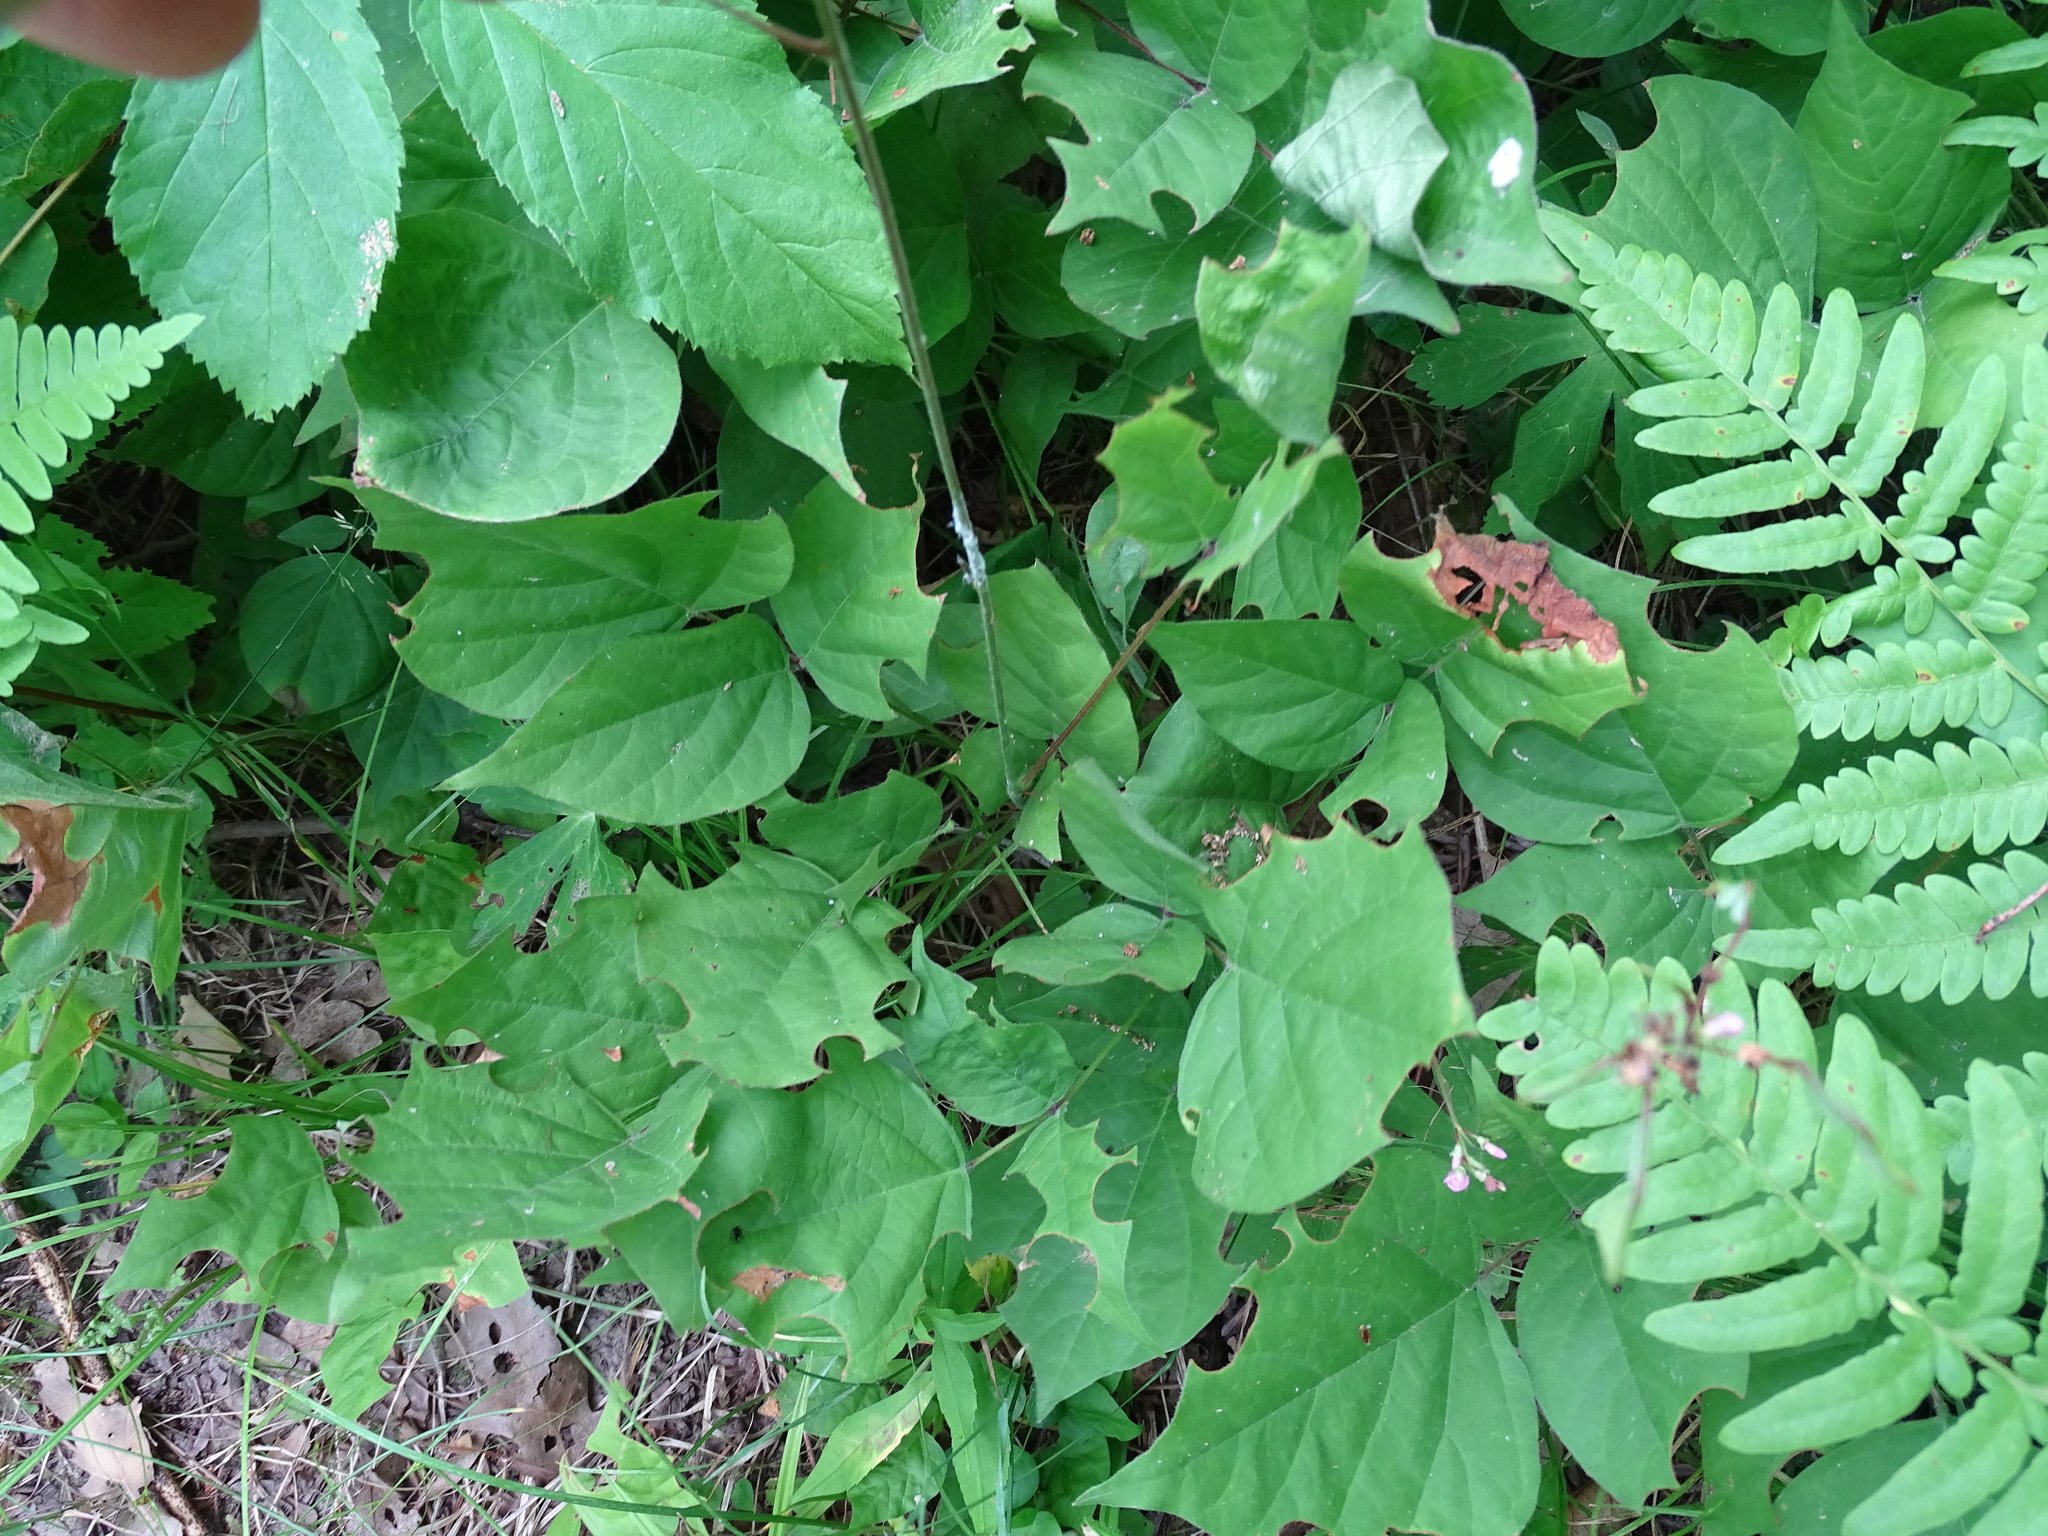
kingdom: Plantae
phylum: Tracheophyta
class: Magnoliopsida
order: Fabales
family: Fabaceae
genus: Hylodesmum
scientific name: Hylodesmum glutinosum
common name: Clustered-leaved tick-trefoil
